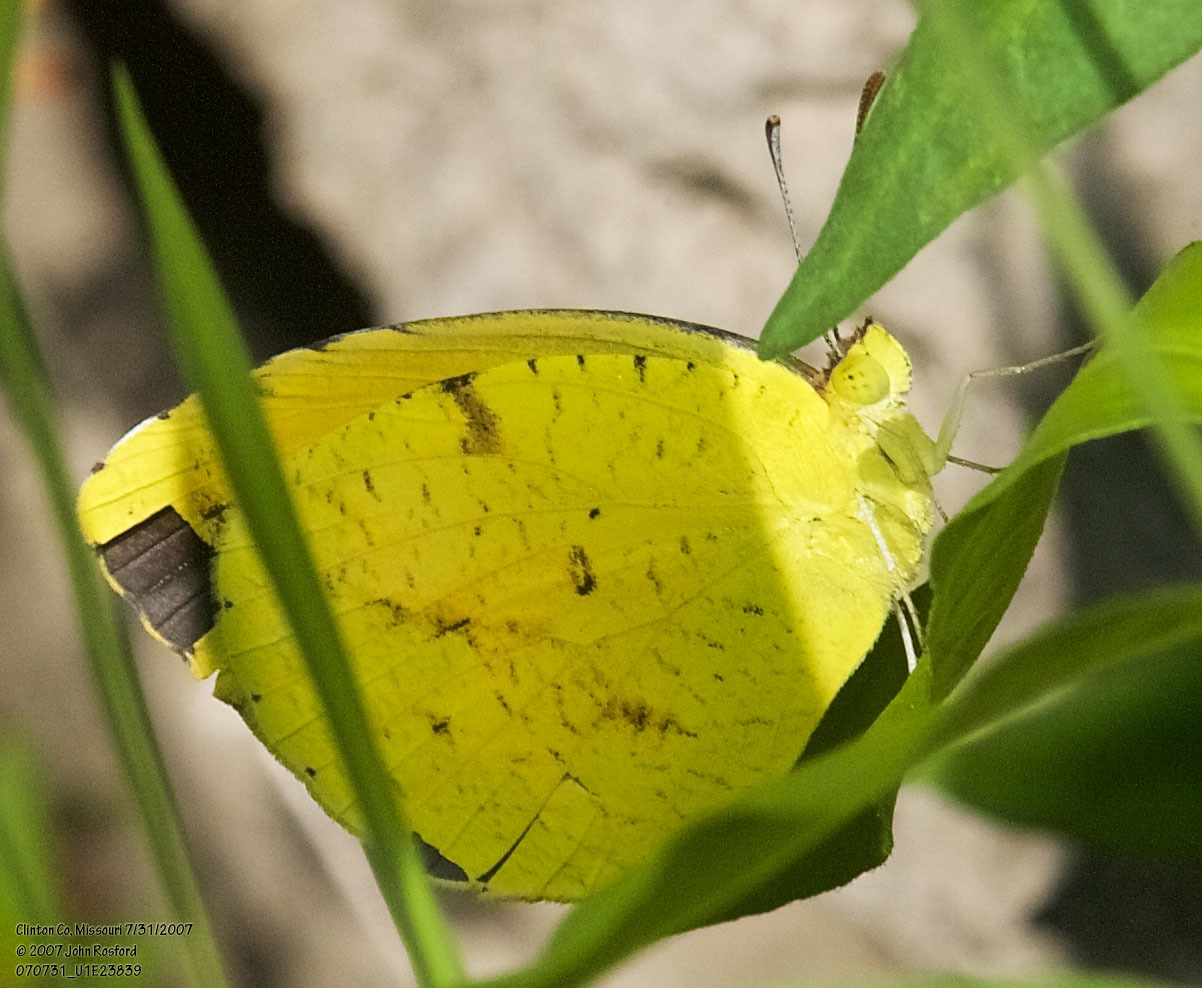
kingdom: Animalia
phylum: Arthropoda
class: Insecta
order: Lepidoptera
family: Pieridae
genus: Abaeis
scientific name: Abaeis nicippe
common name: Sleepy orange
